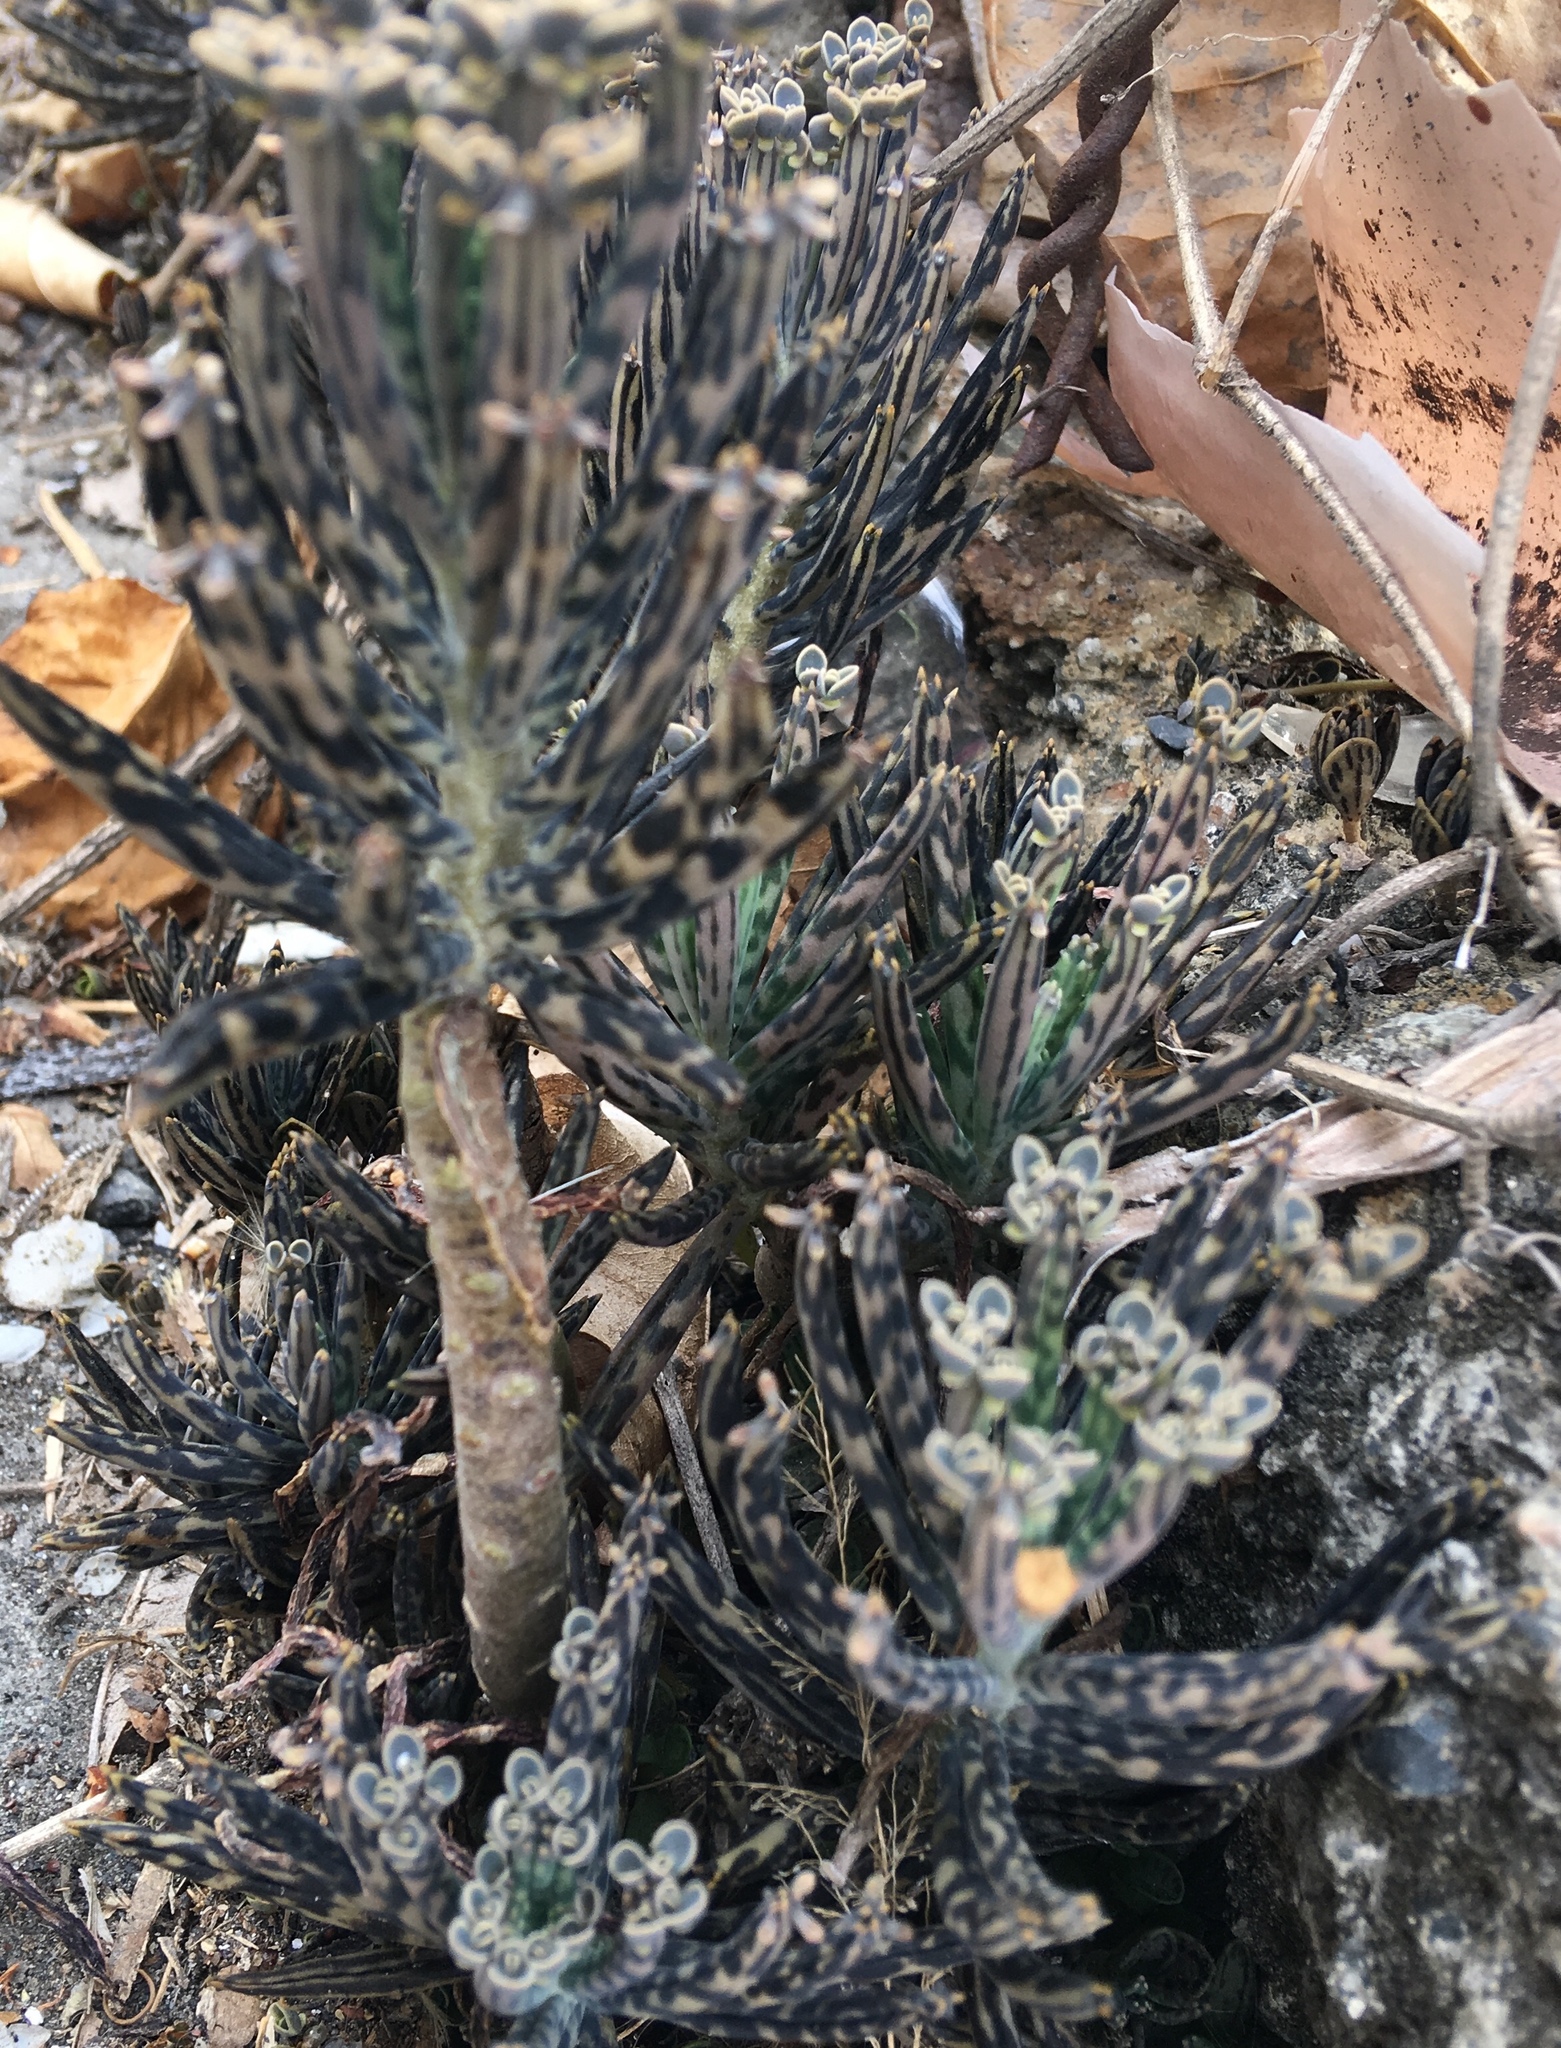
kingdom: Plantae
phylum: Tracheophyta
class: Magnoliopsida
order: Saxifragales
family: Crassulaceae
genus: Kalanchoe
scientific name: Kalanchoe delagoensis
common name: Chandelier plant
